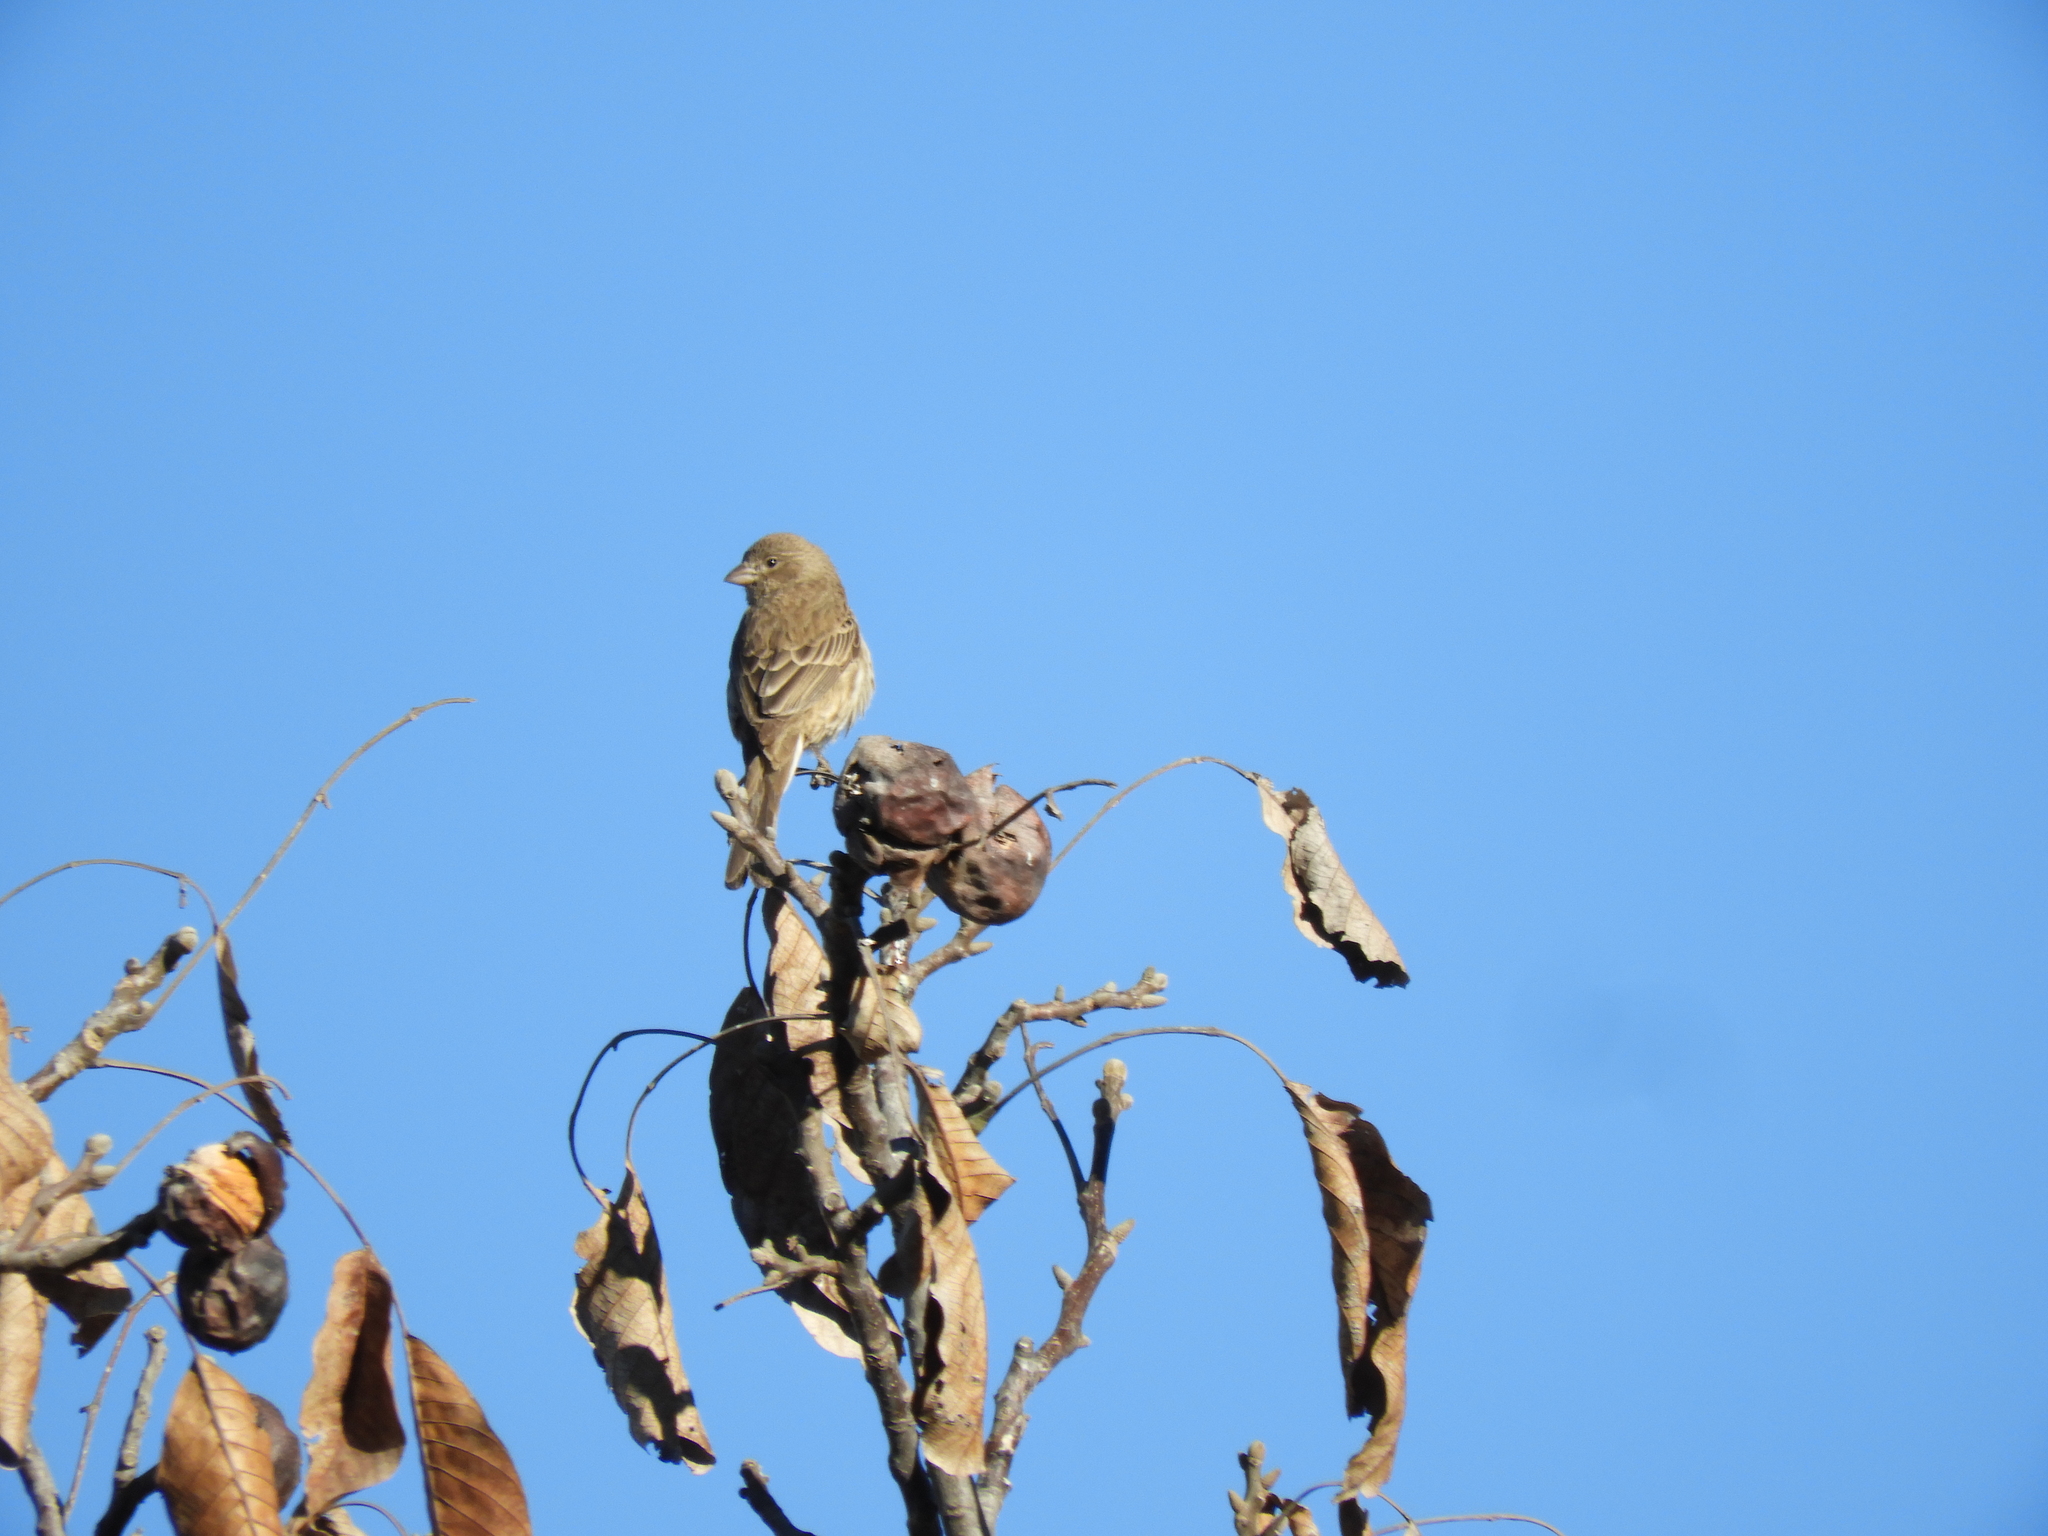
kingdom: Animalia
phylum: Chordata
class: Aves
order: Passeriformes
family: Fringillidae
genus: Haemorhous
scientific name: Haemorhous mexicanus
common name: House finch
